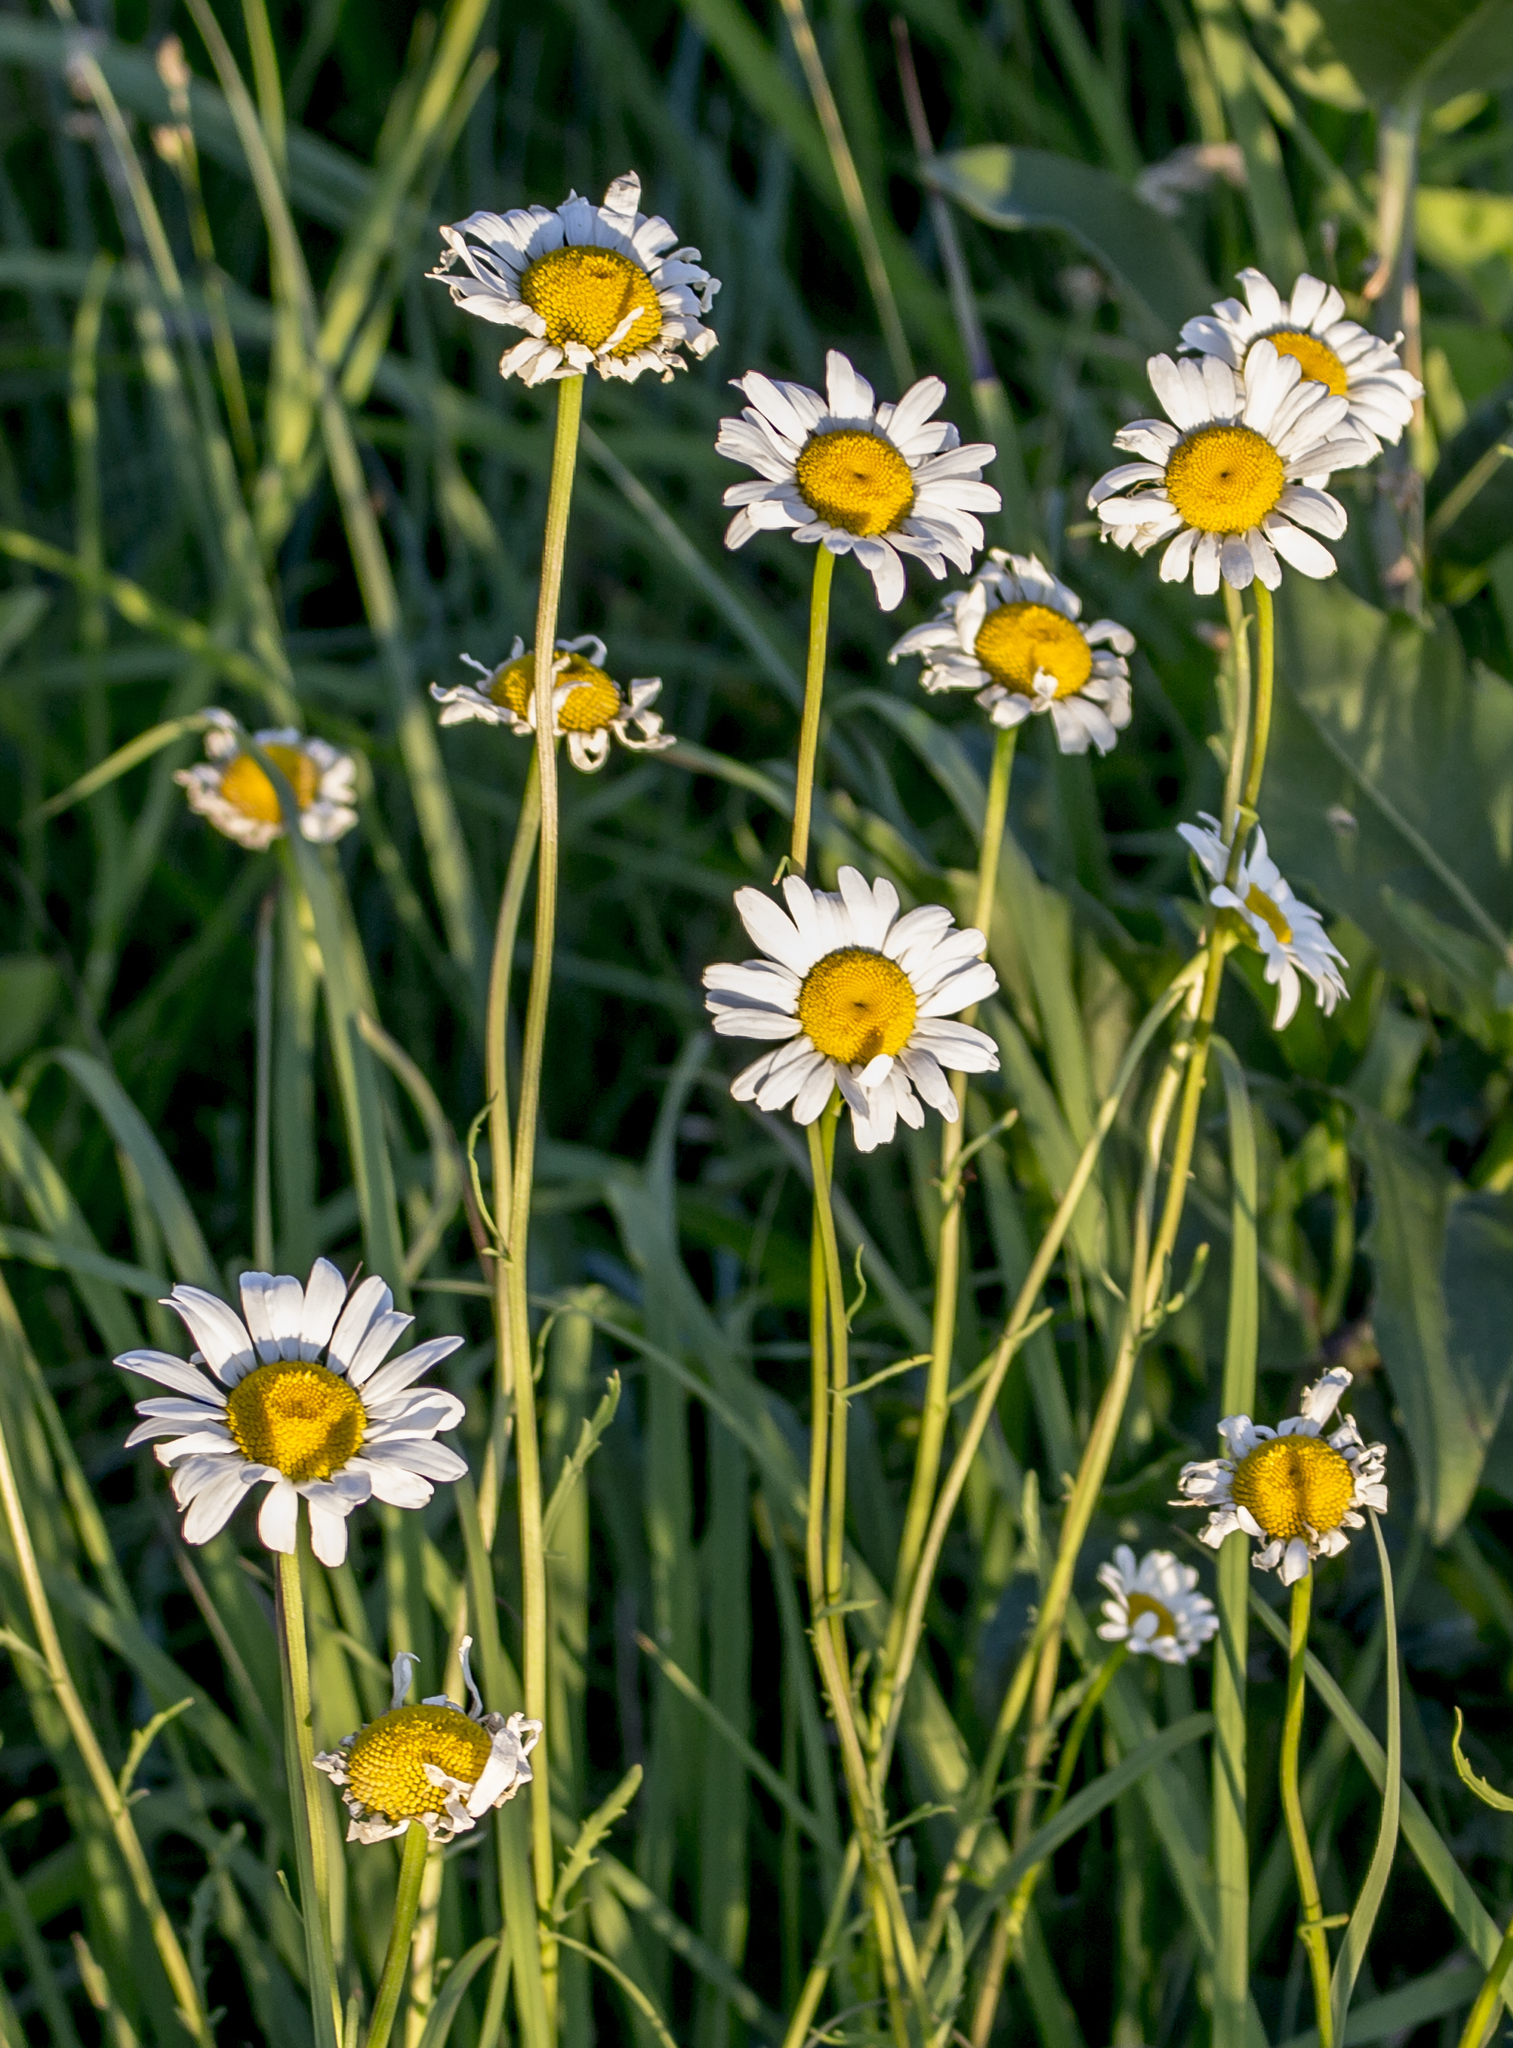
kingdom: Plantae
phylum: Tracheophyta
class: Magnoliopsida
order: Asterales
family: Asteraceae
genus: Leucanthemum
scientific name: Leucanthemum vulgare
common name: Oxeye daisy
